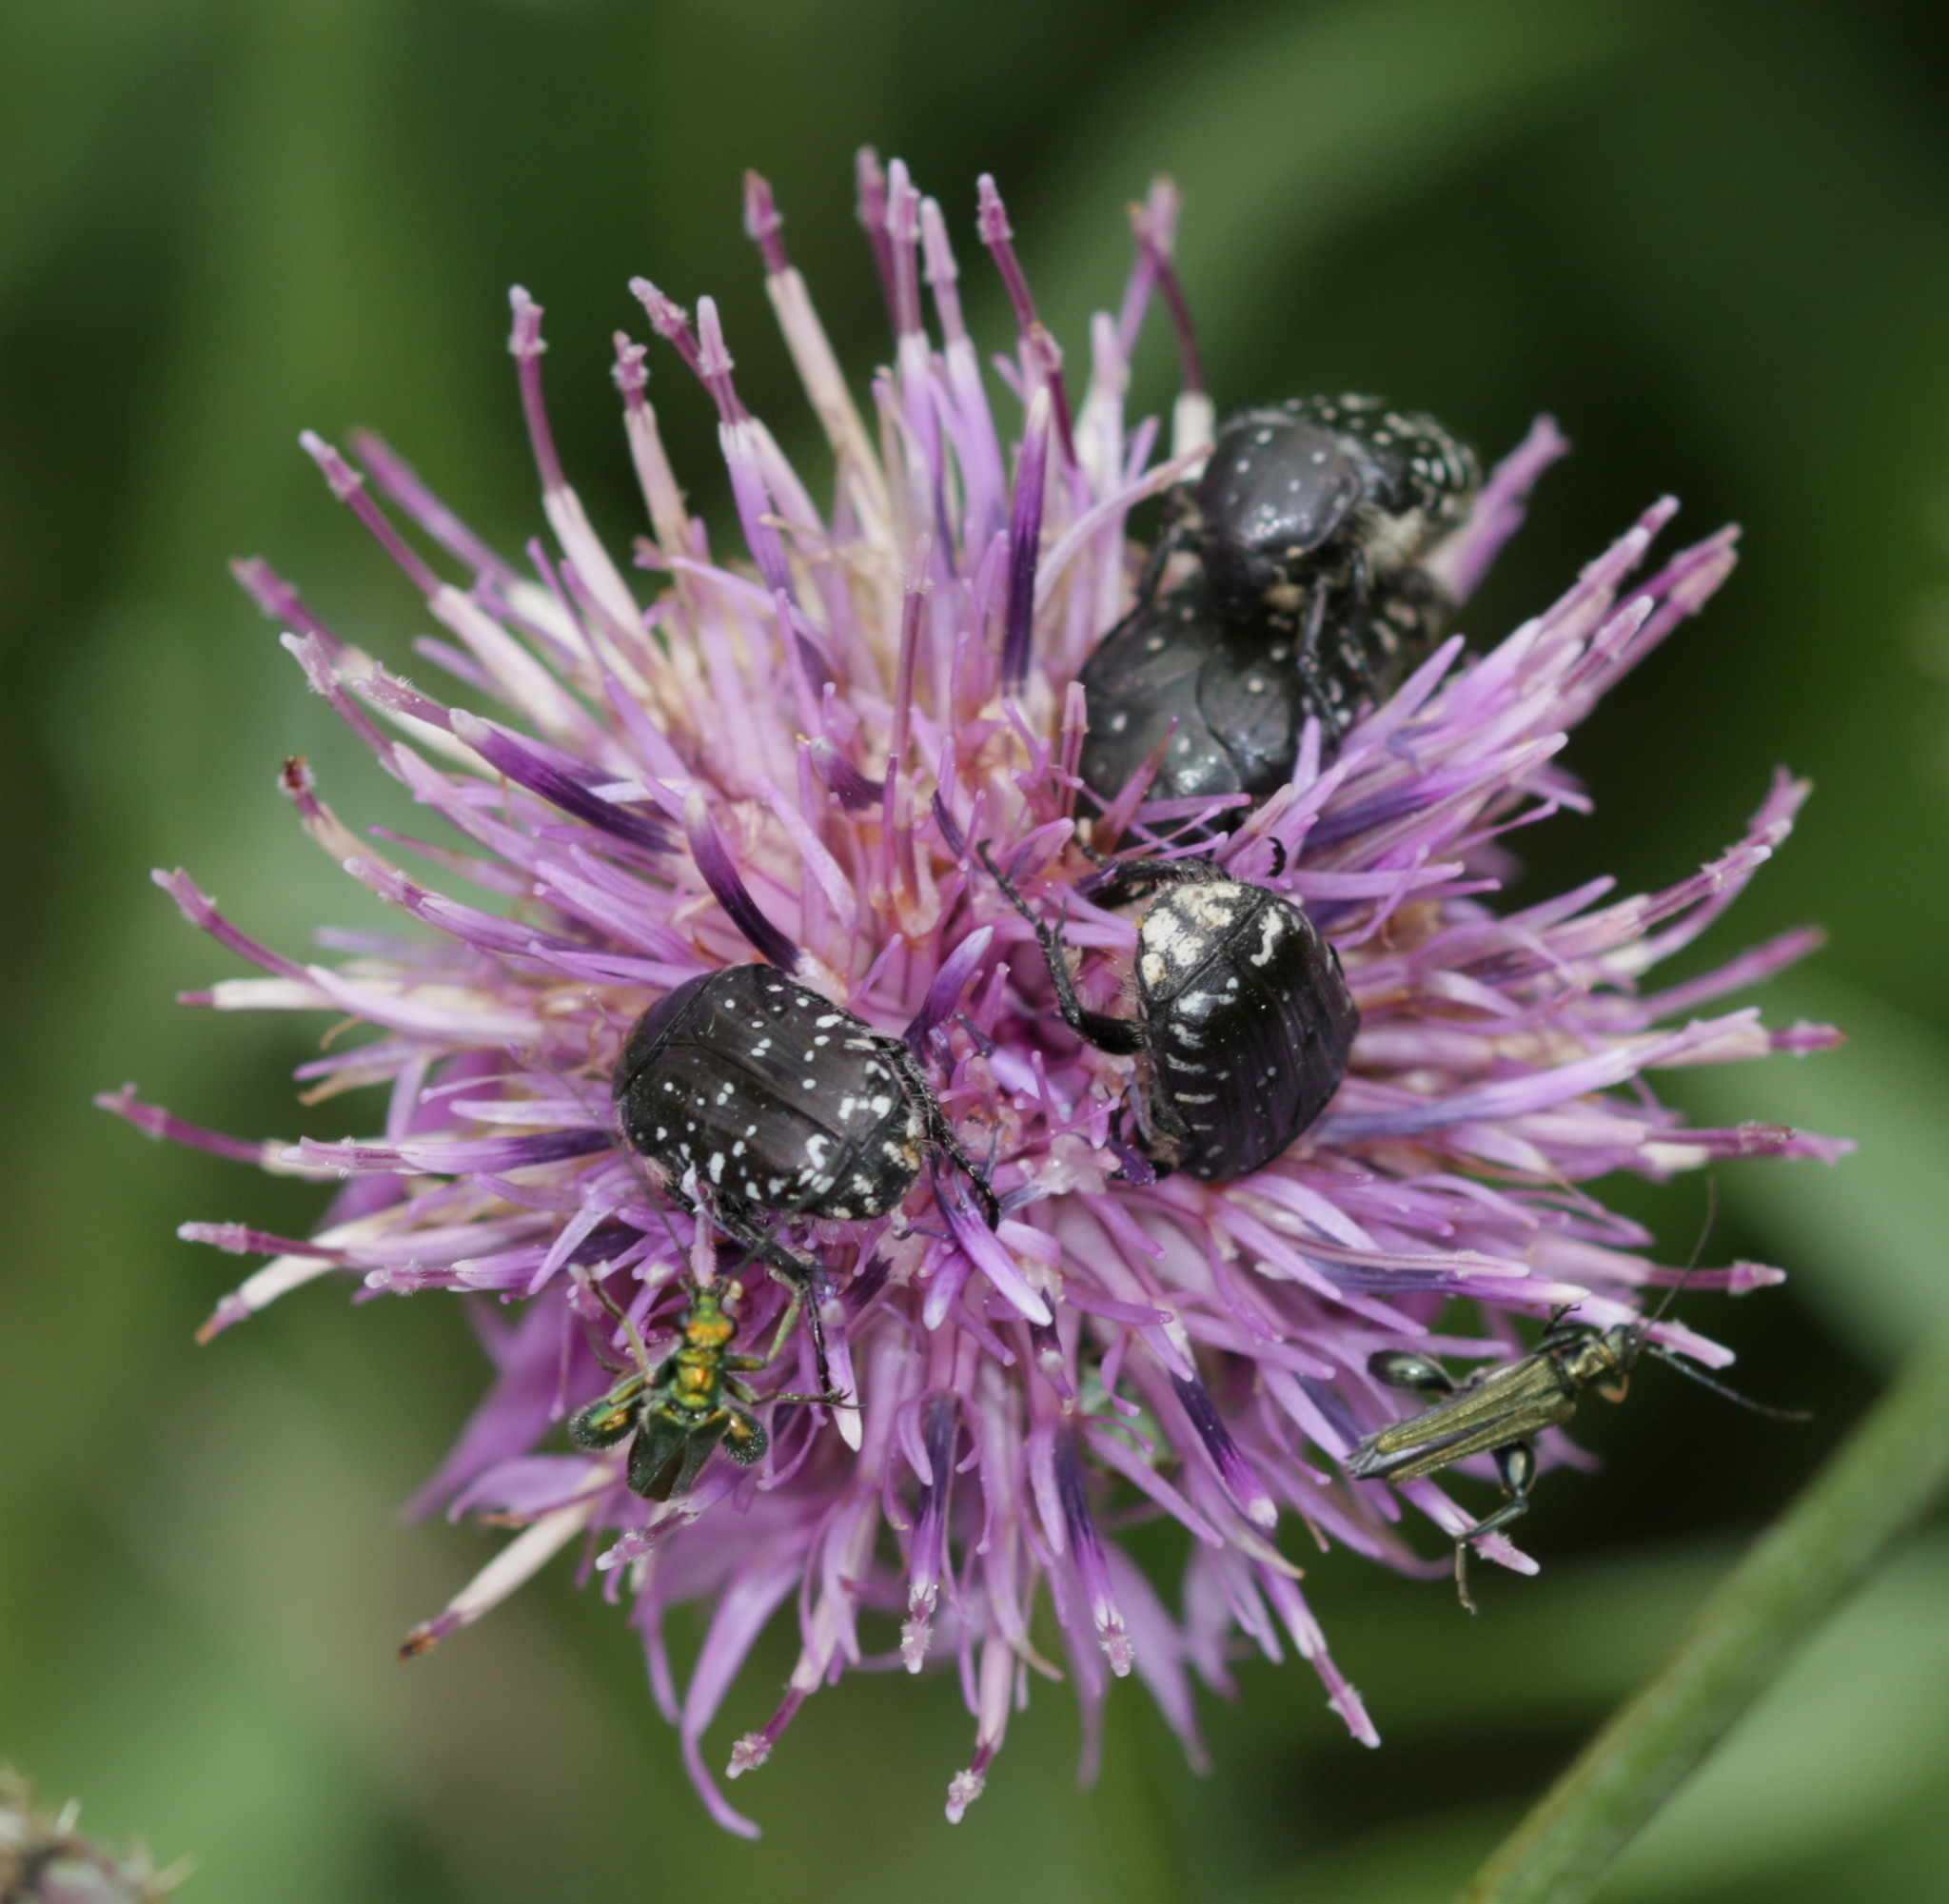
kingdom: Animalia
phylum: Arthropoda
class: Insecta
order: Coleoptera
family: Scarabaeidae
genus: Oxythyrea
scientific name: Oxythyrea funesta
